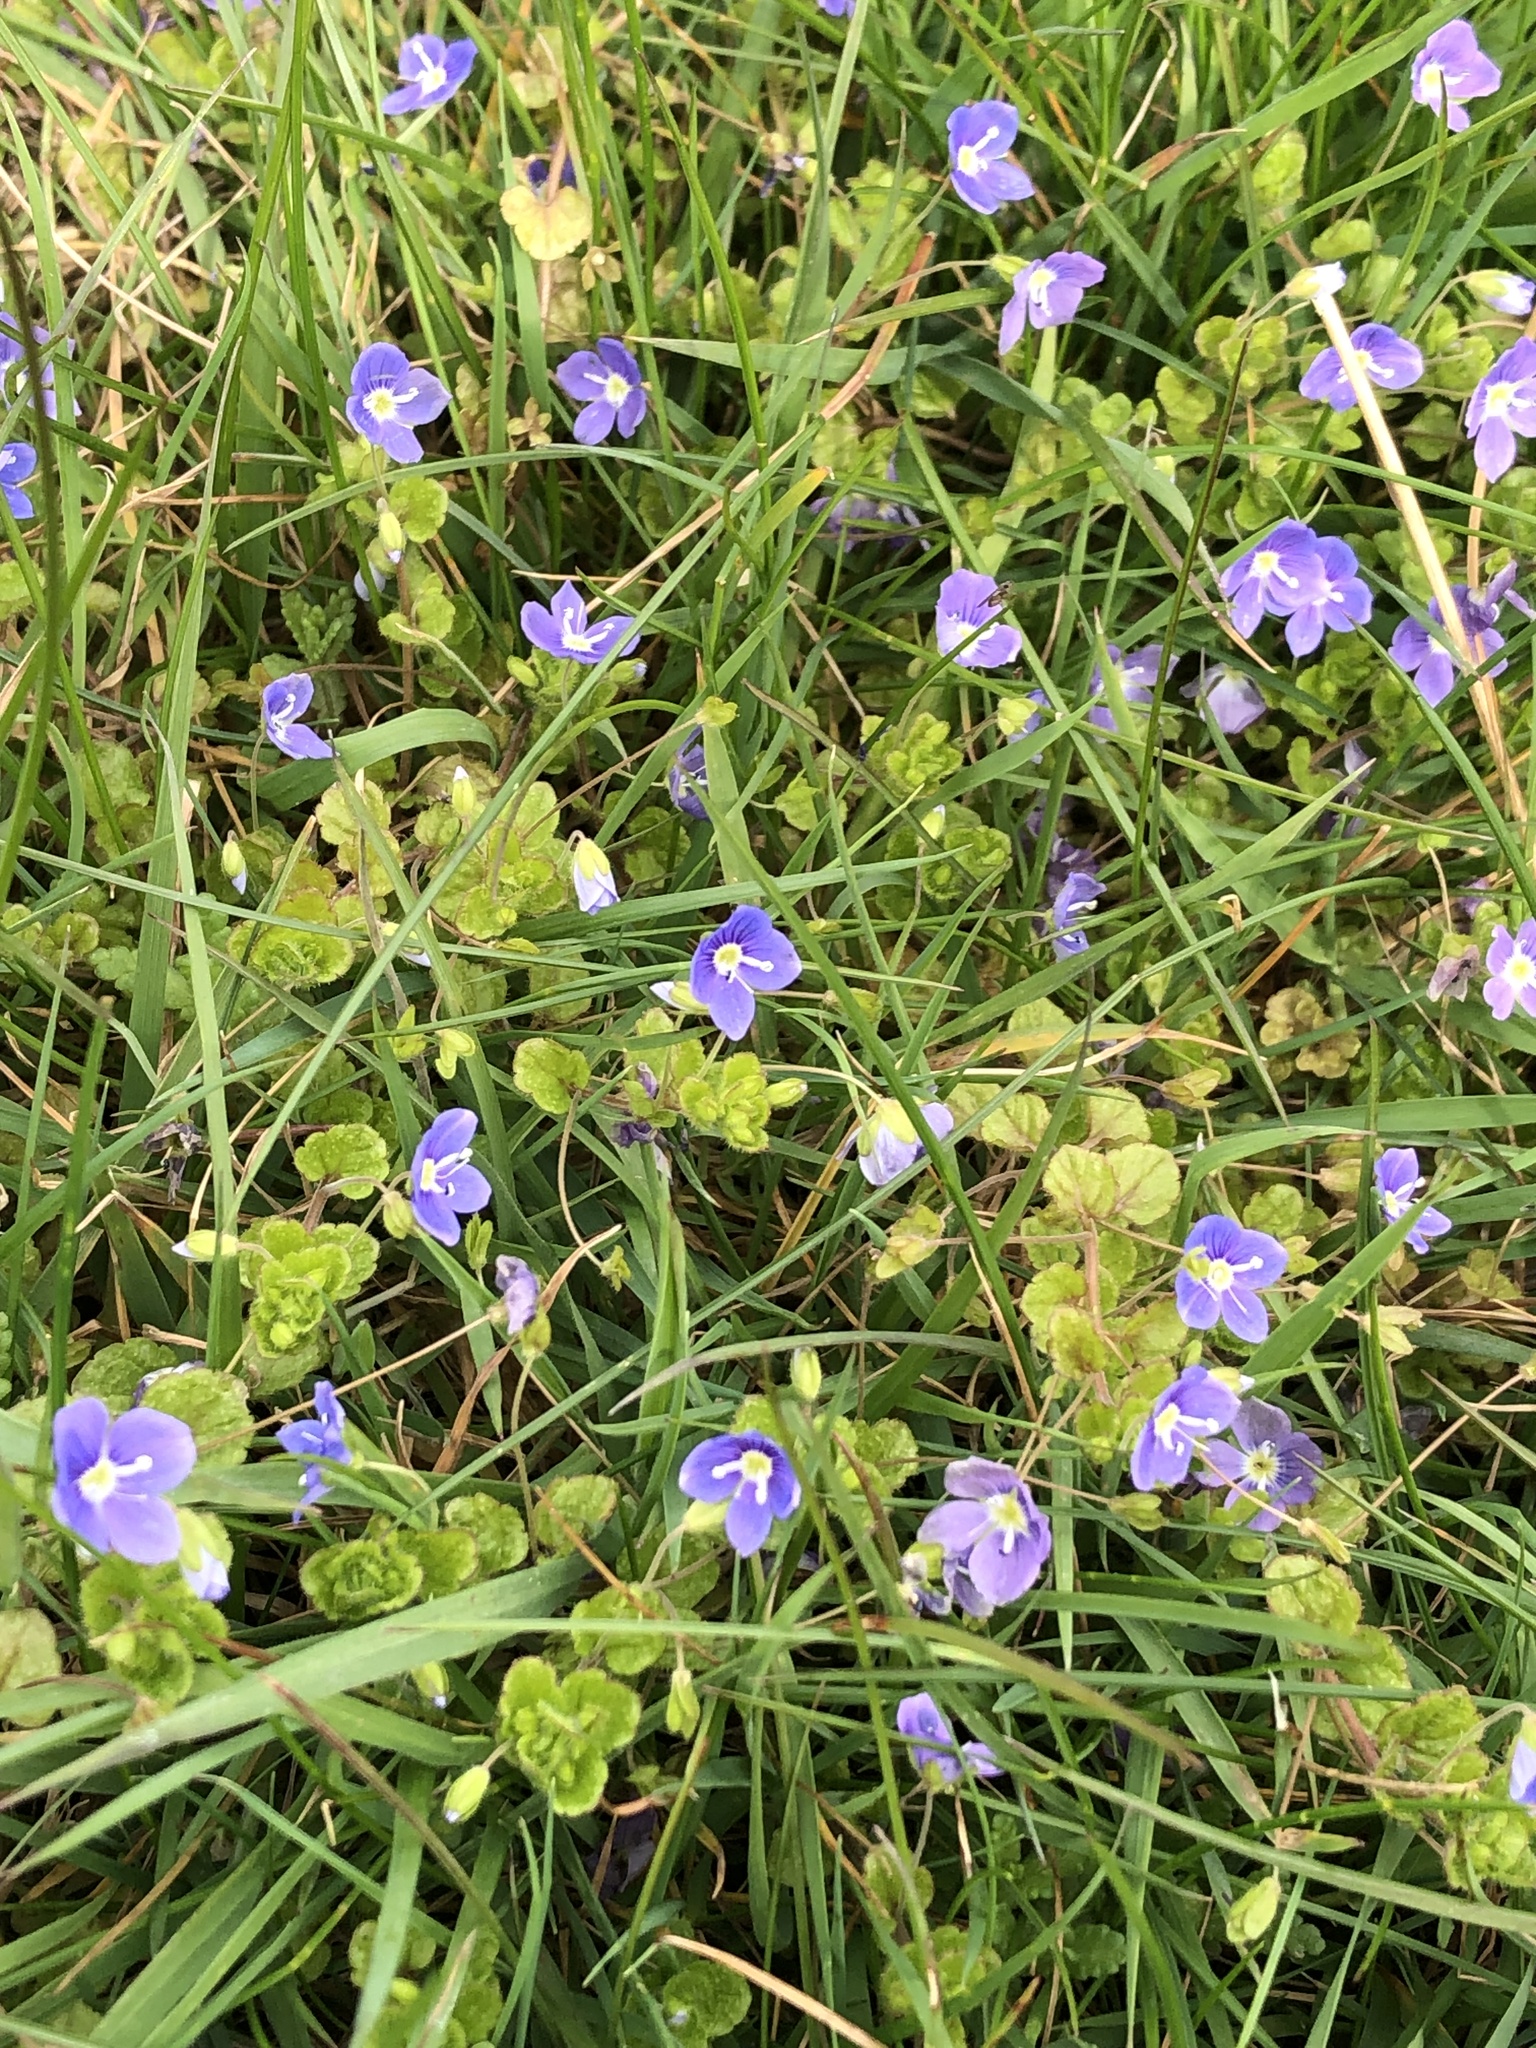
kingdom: Plantae
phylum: Tracheophyta
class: Magnoliopsida
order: Lamiales
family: Plantaginaceae
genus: Veronica
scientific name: Veronica filiformis
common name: Slender speedwell
